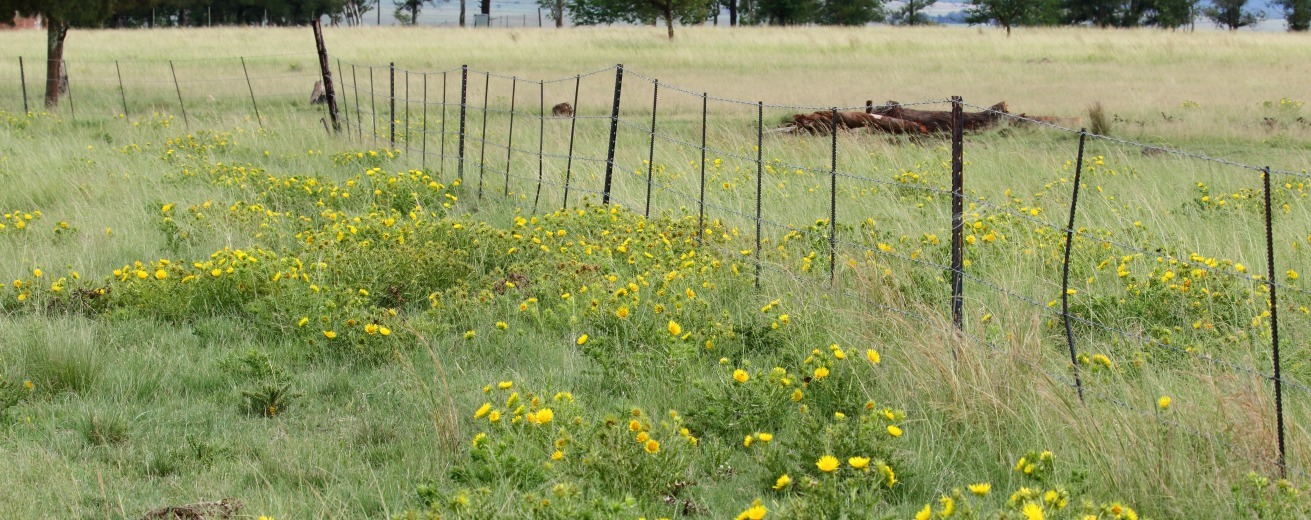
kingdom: Plantae
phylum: Tracheophyta
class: Magnoliopsida
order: Asterales
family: Asteraceae
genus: Berkheya
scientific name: Berkheya onopordifolia
